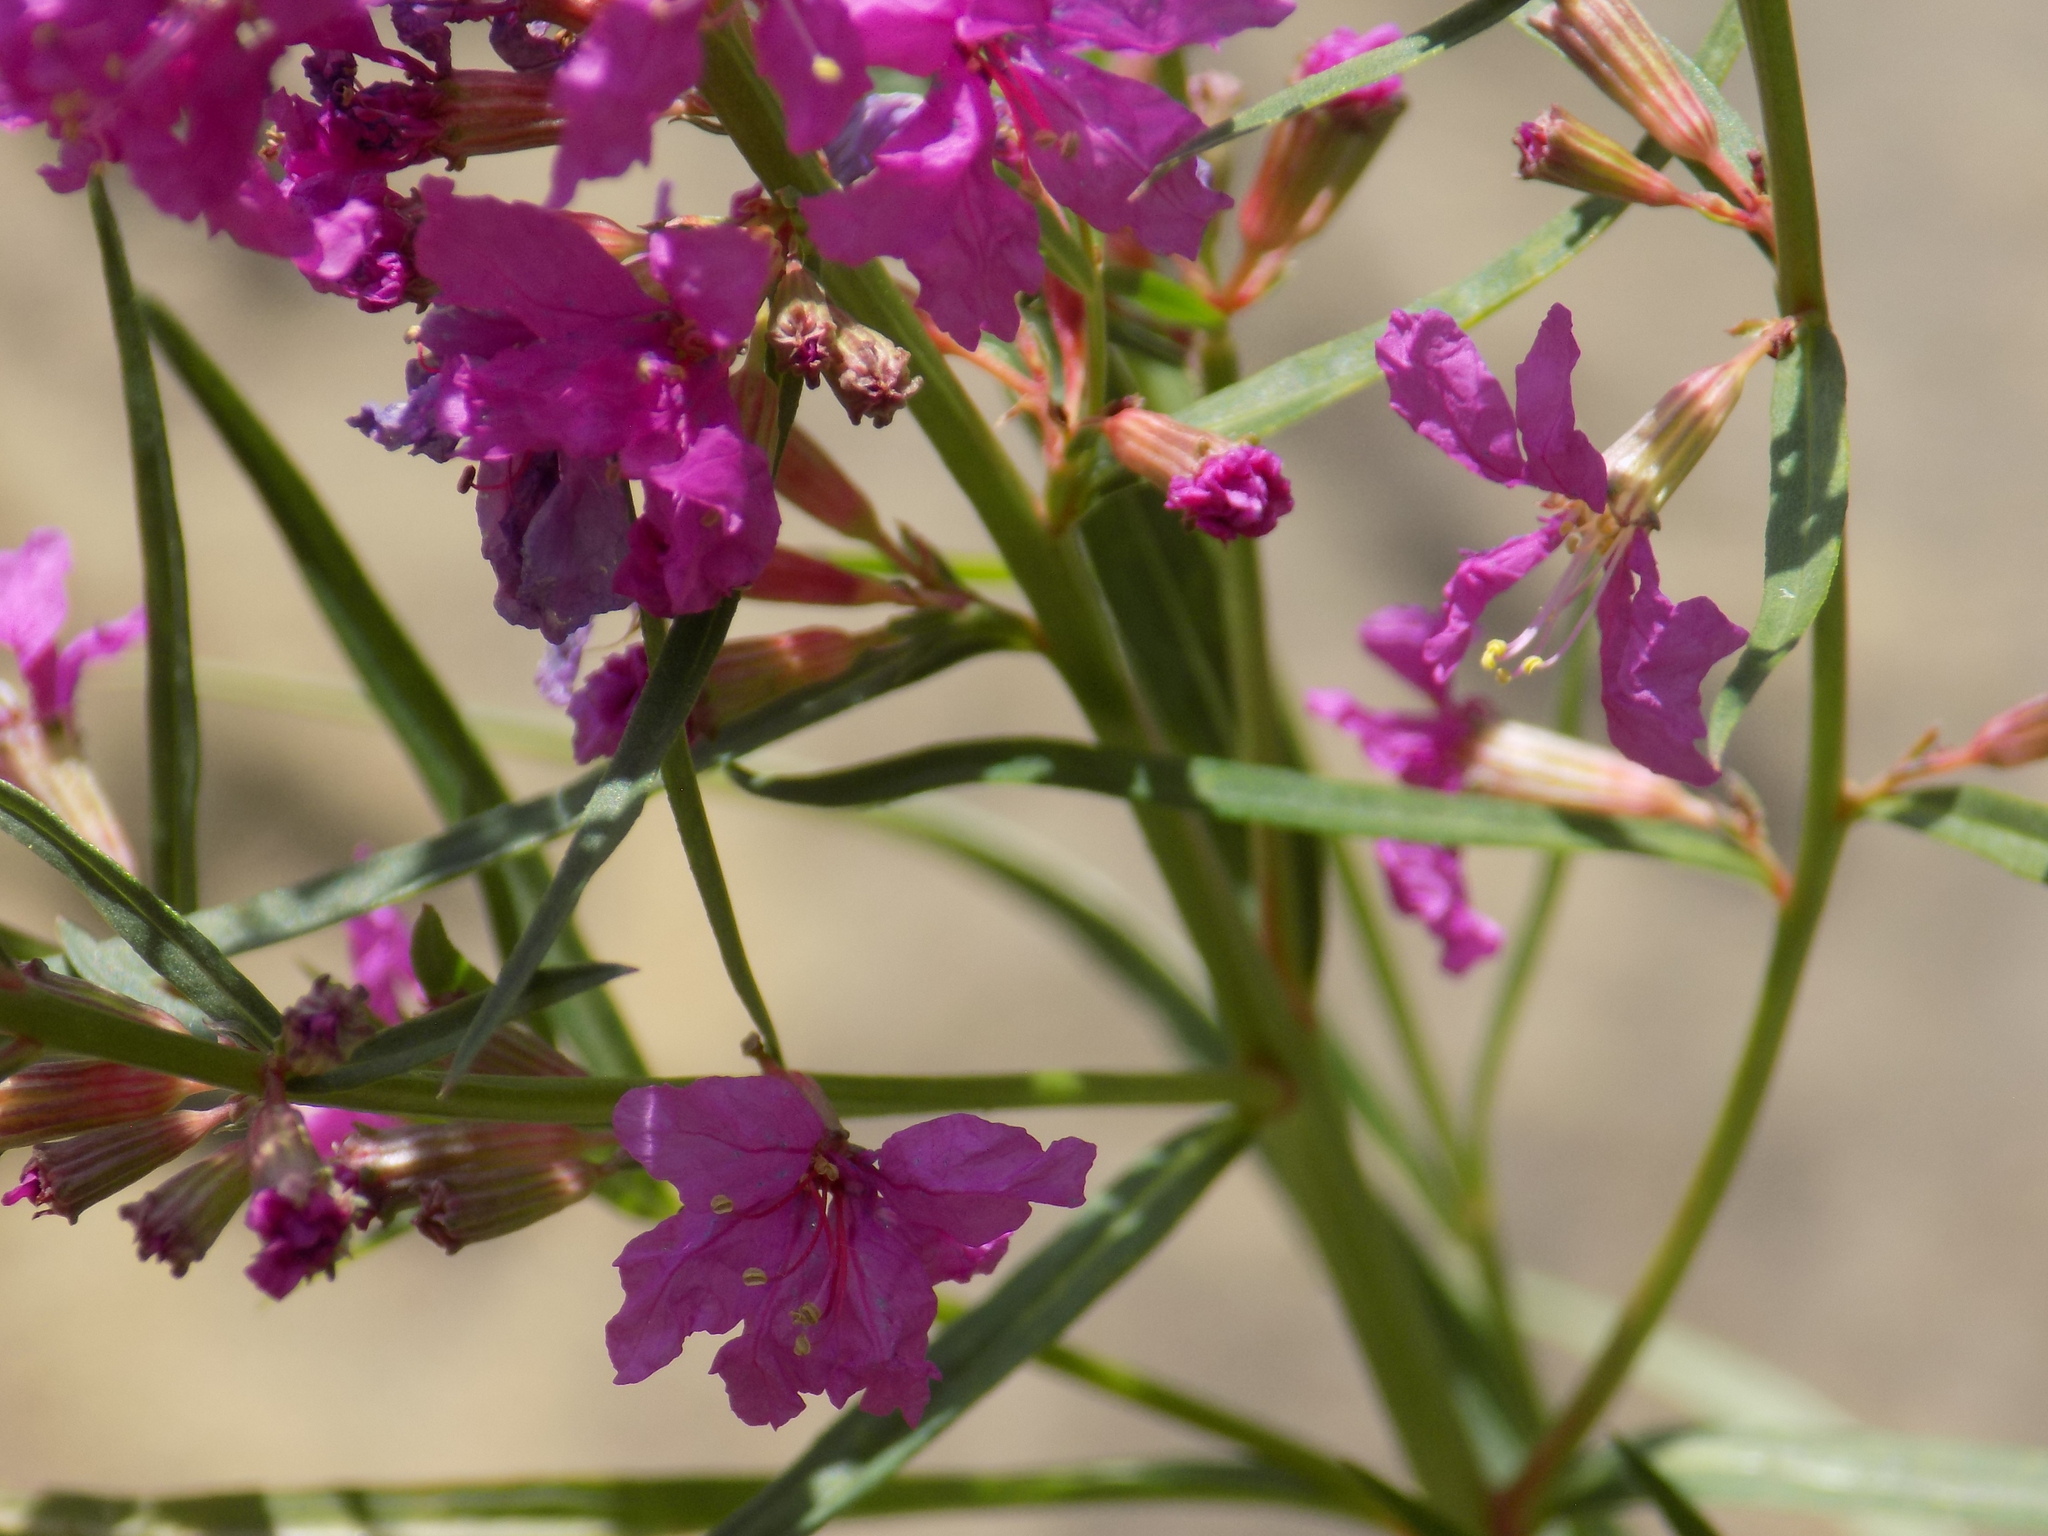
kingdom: Plantae
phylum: Tracheophyta
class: Magnoliopsida
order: Myrtales
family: Lythraceae
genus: Lythrum
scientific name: Lythrum virgatum
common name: European wand loosestrife
